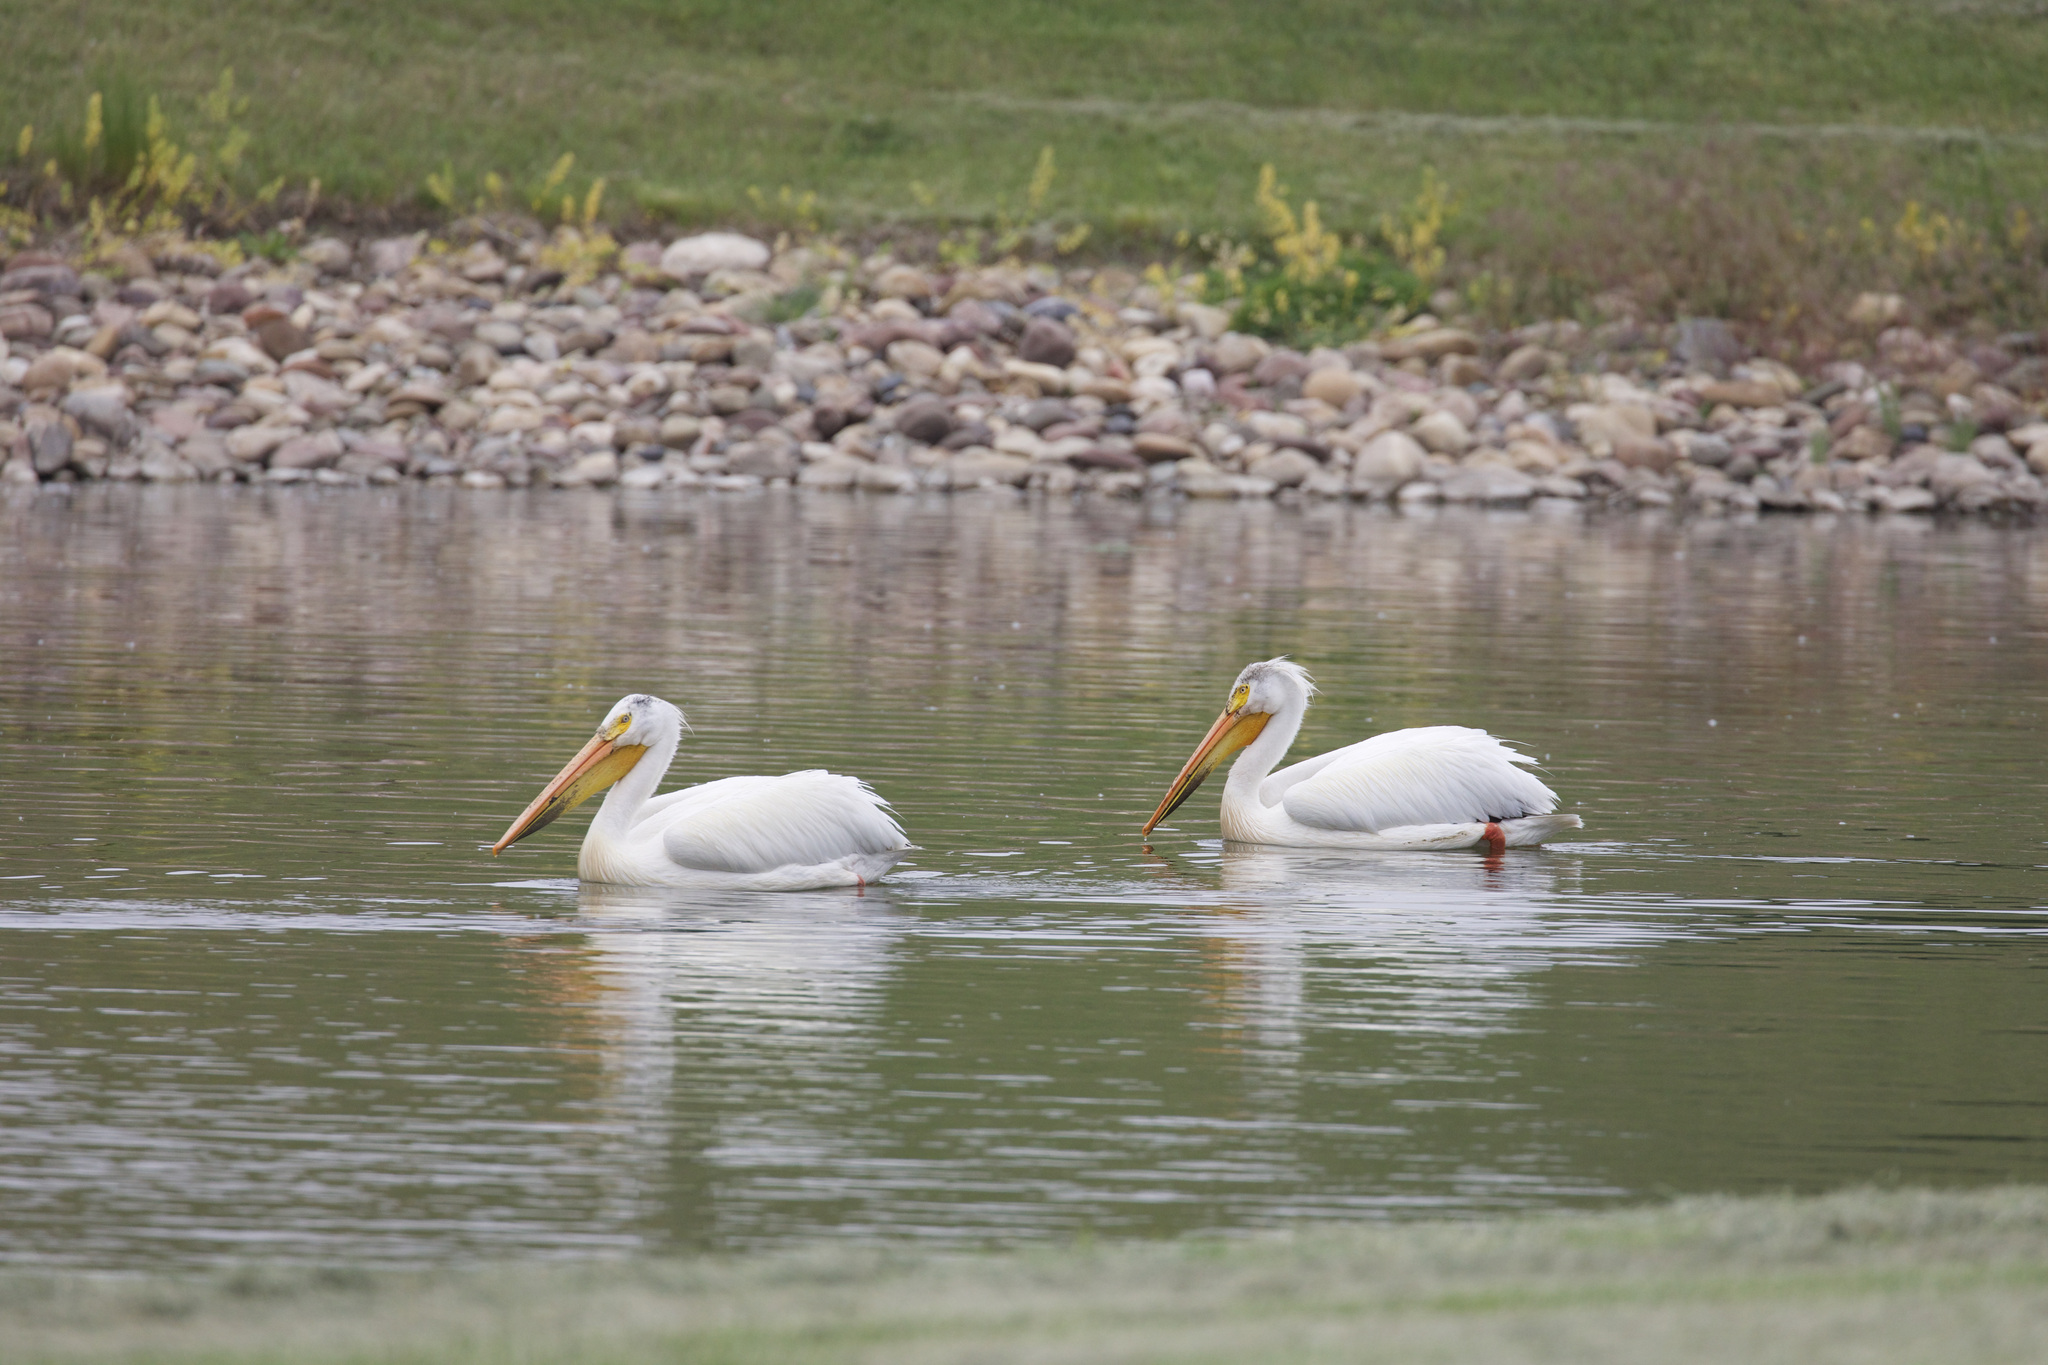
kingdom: Animalia
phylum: Chordata
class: Aves
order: Pelecaniformes
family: Pelecanidae
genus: Pelecanus
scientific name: Pelecanus erythrorhynchos
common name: American white pelican
